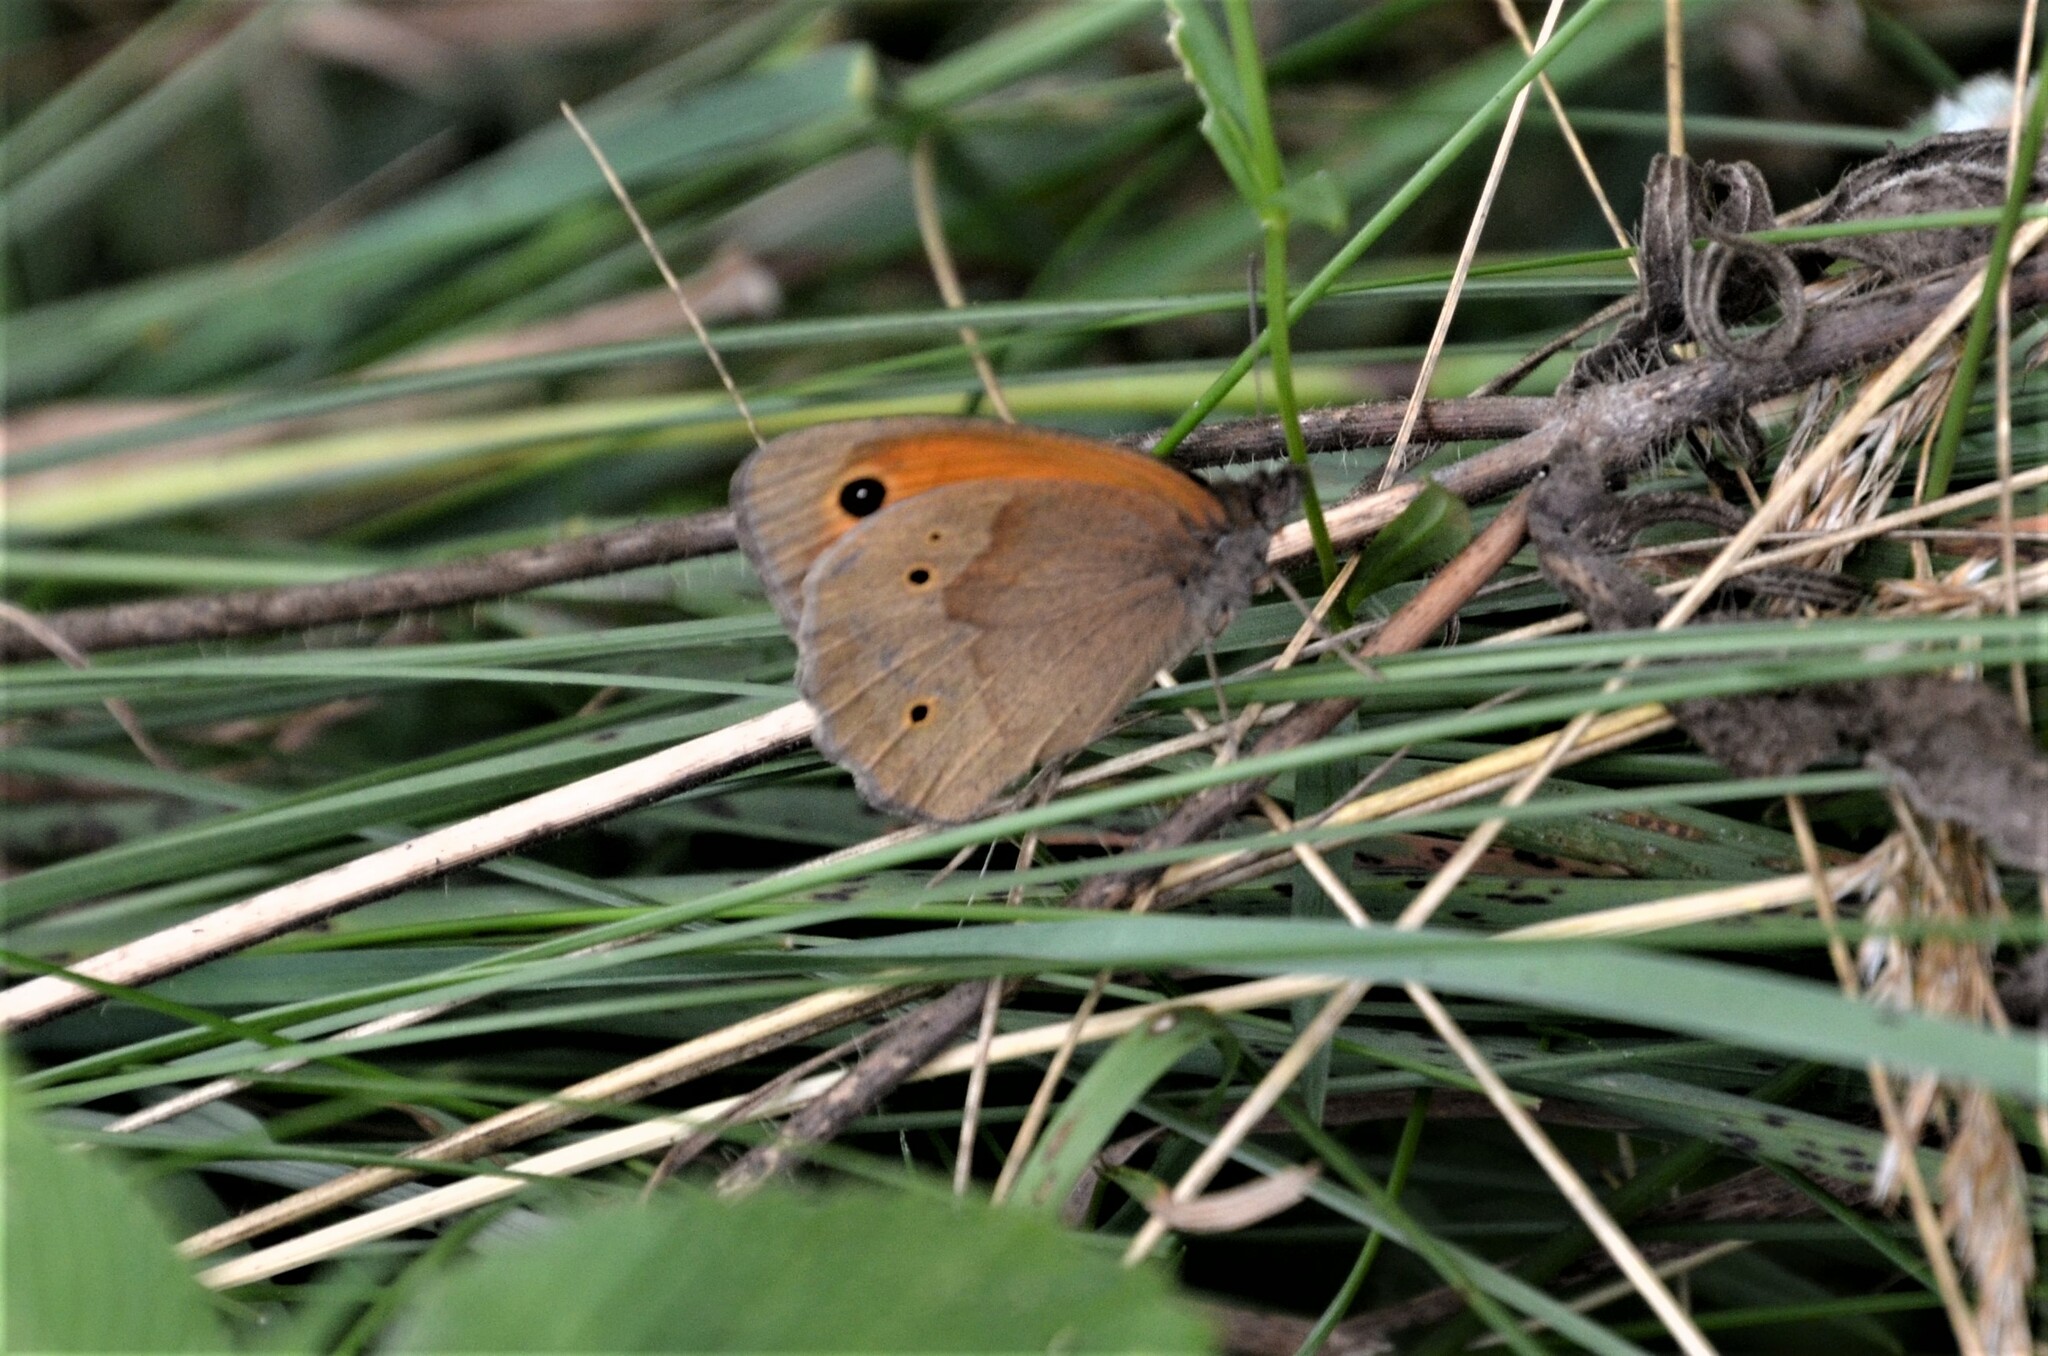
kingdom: Animalia
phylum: Arthropoda
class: Insecta
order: Lepidoptera
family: Nymphalidae
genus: Maniola
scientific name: Maniola jurtina
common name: Meadow brown
